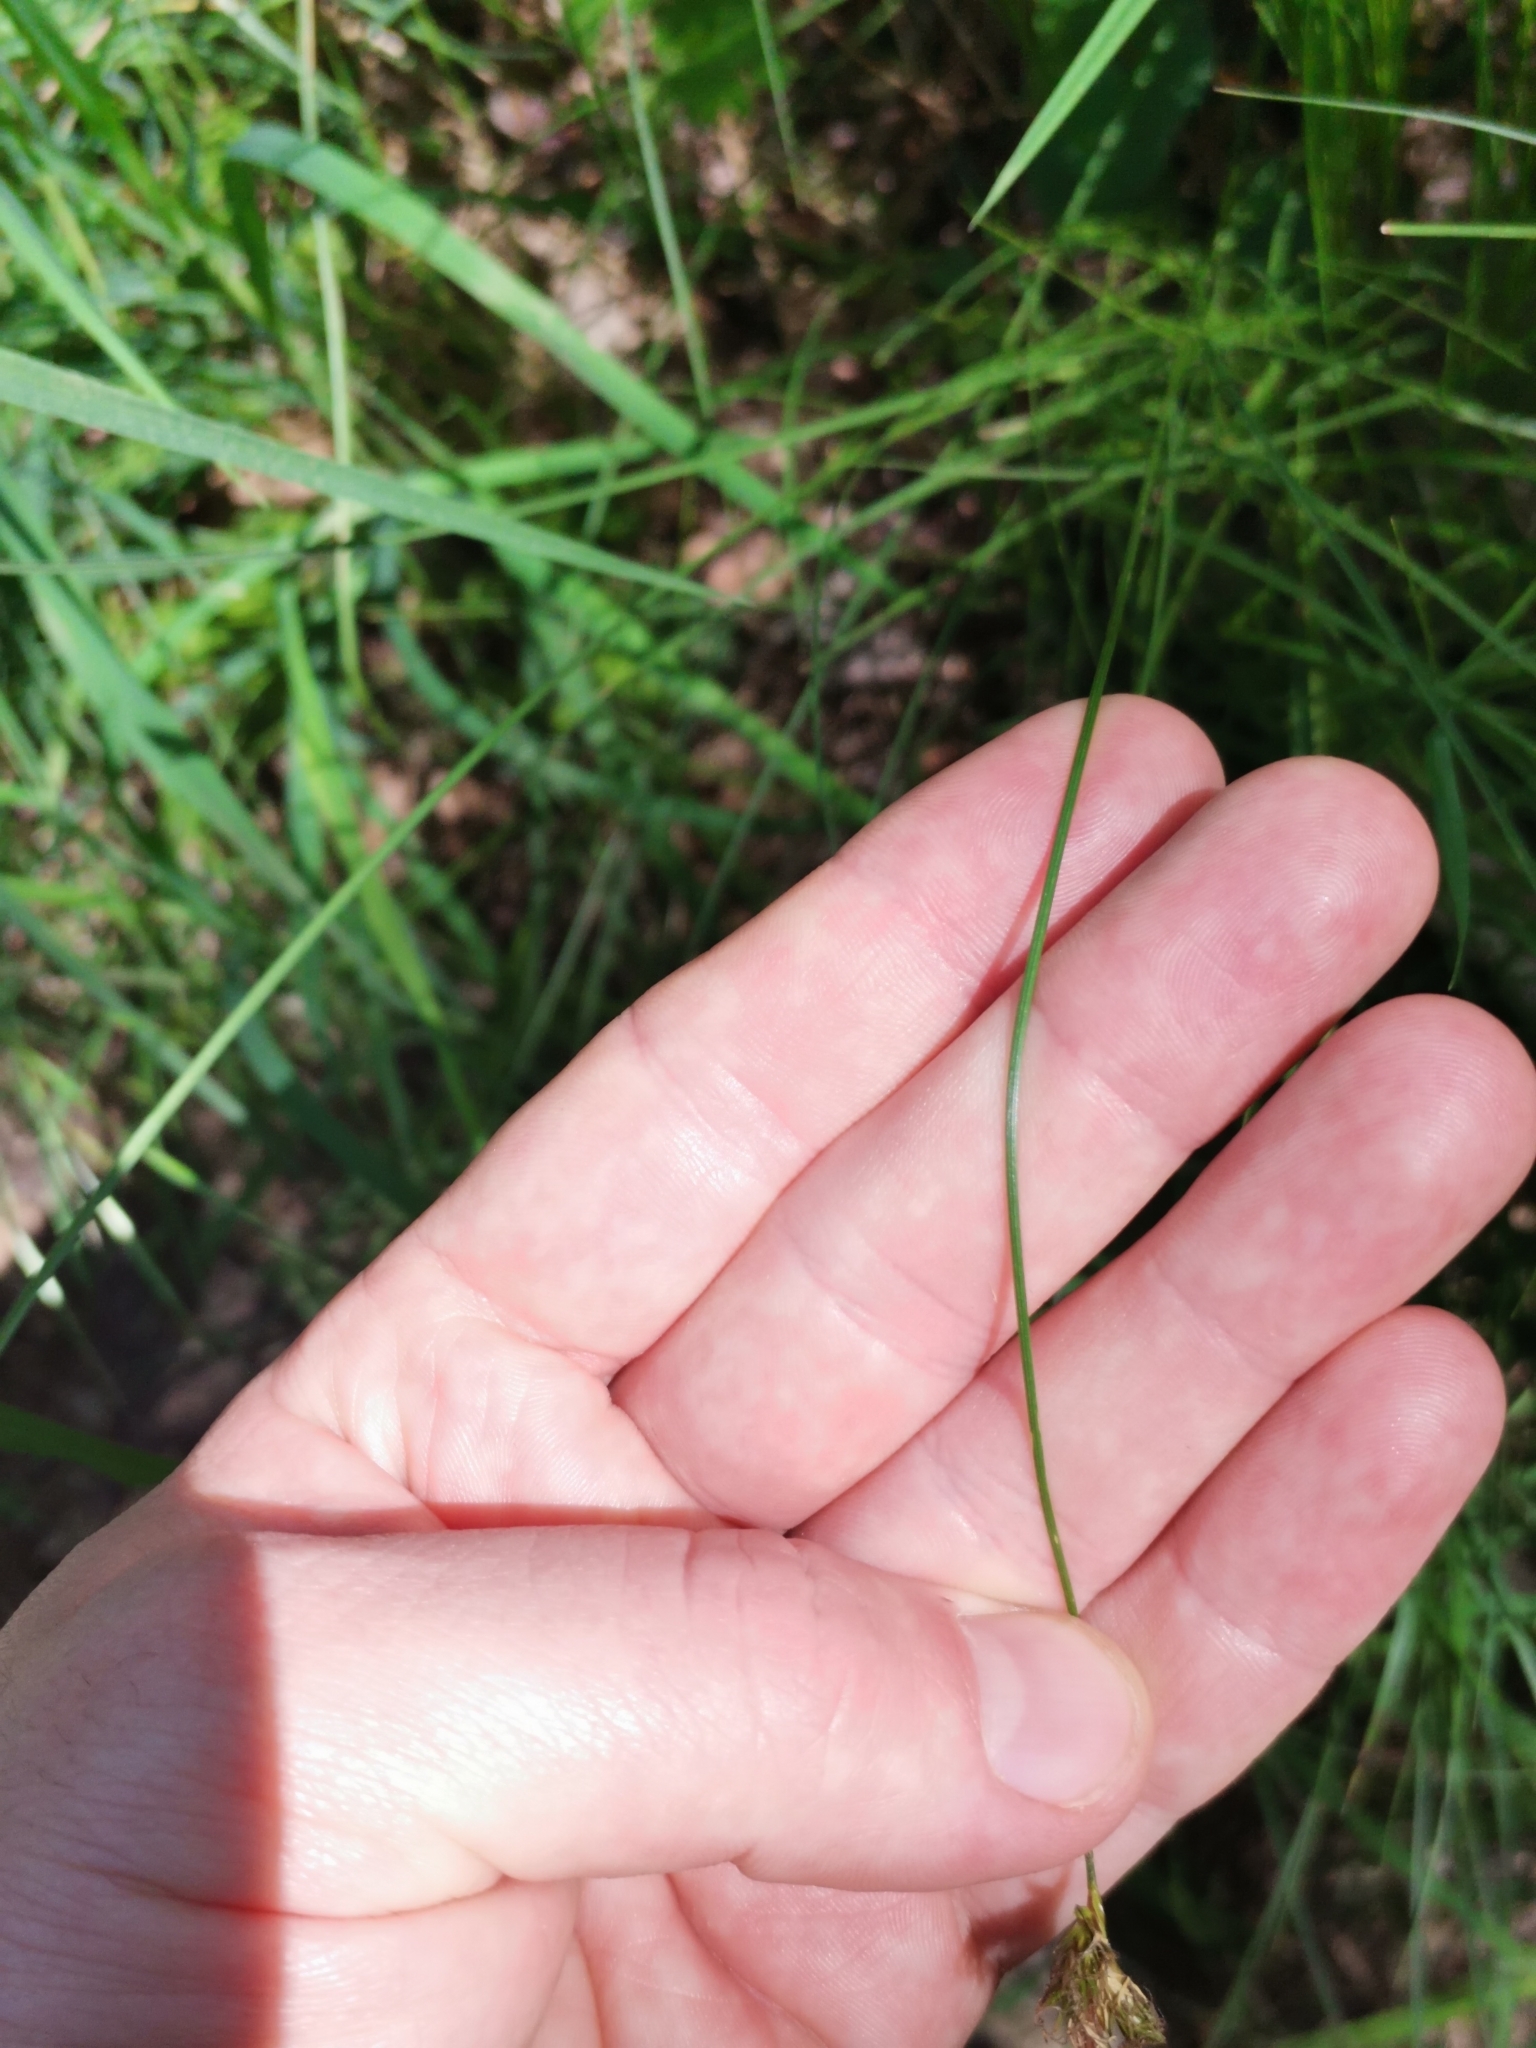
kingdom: Plantae
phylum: Tracheophyta
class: Liliopsida
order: Poales
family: Cyperaceae
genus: Carex
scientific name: Carex brizoides
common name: Quaking-grass sedge
